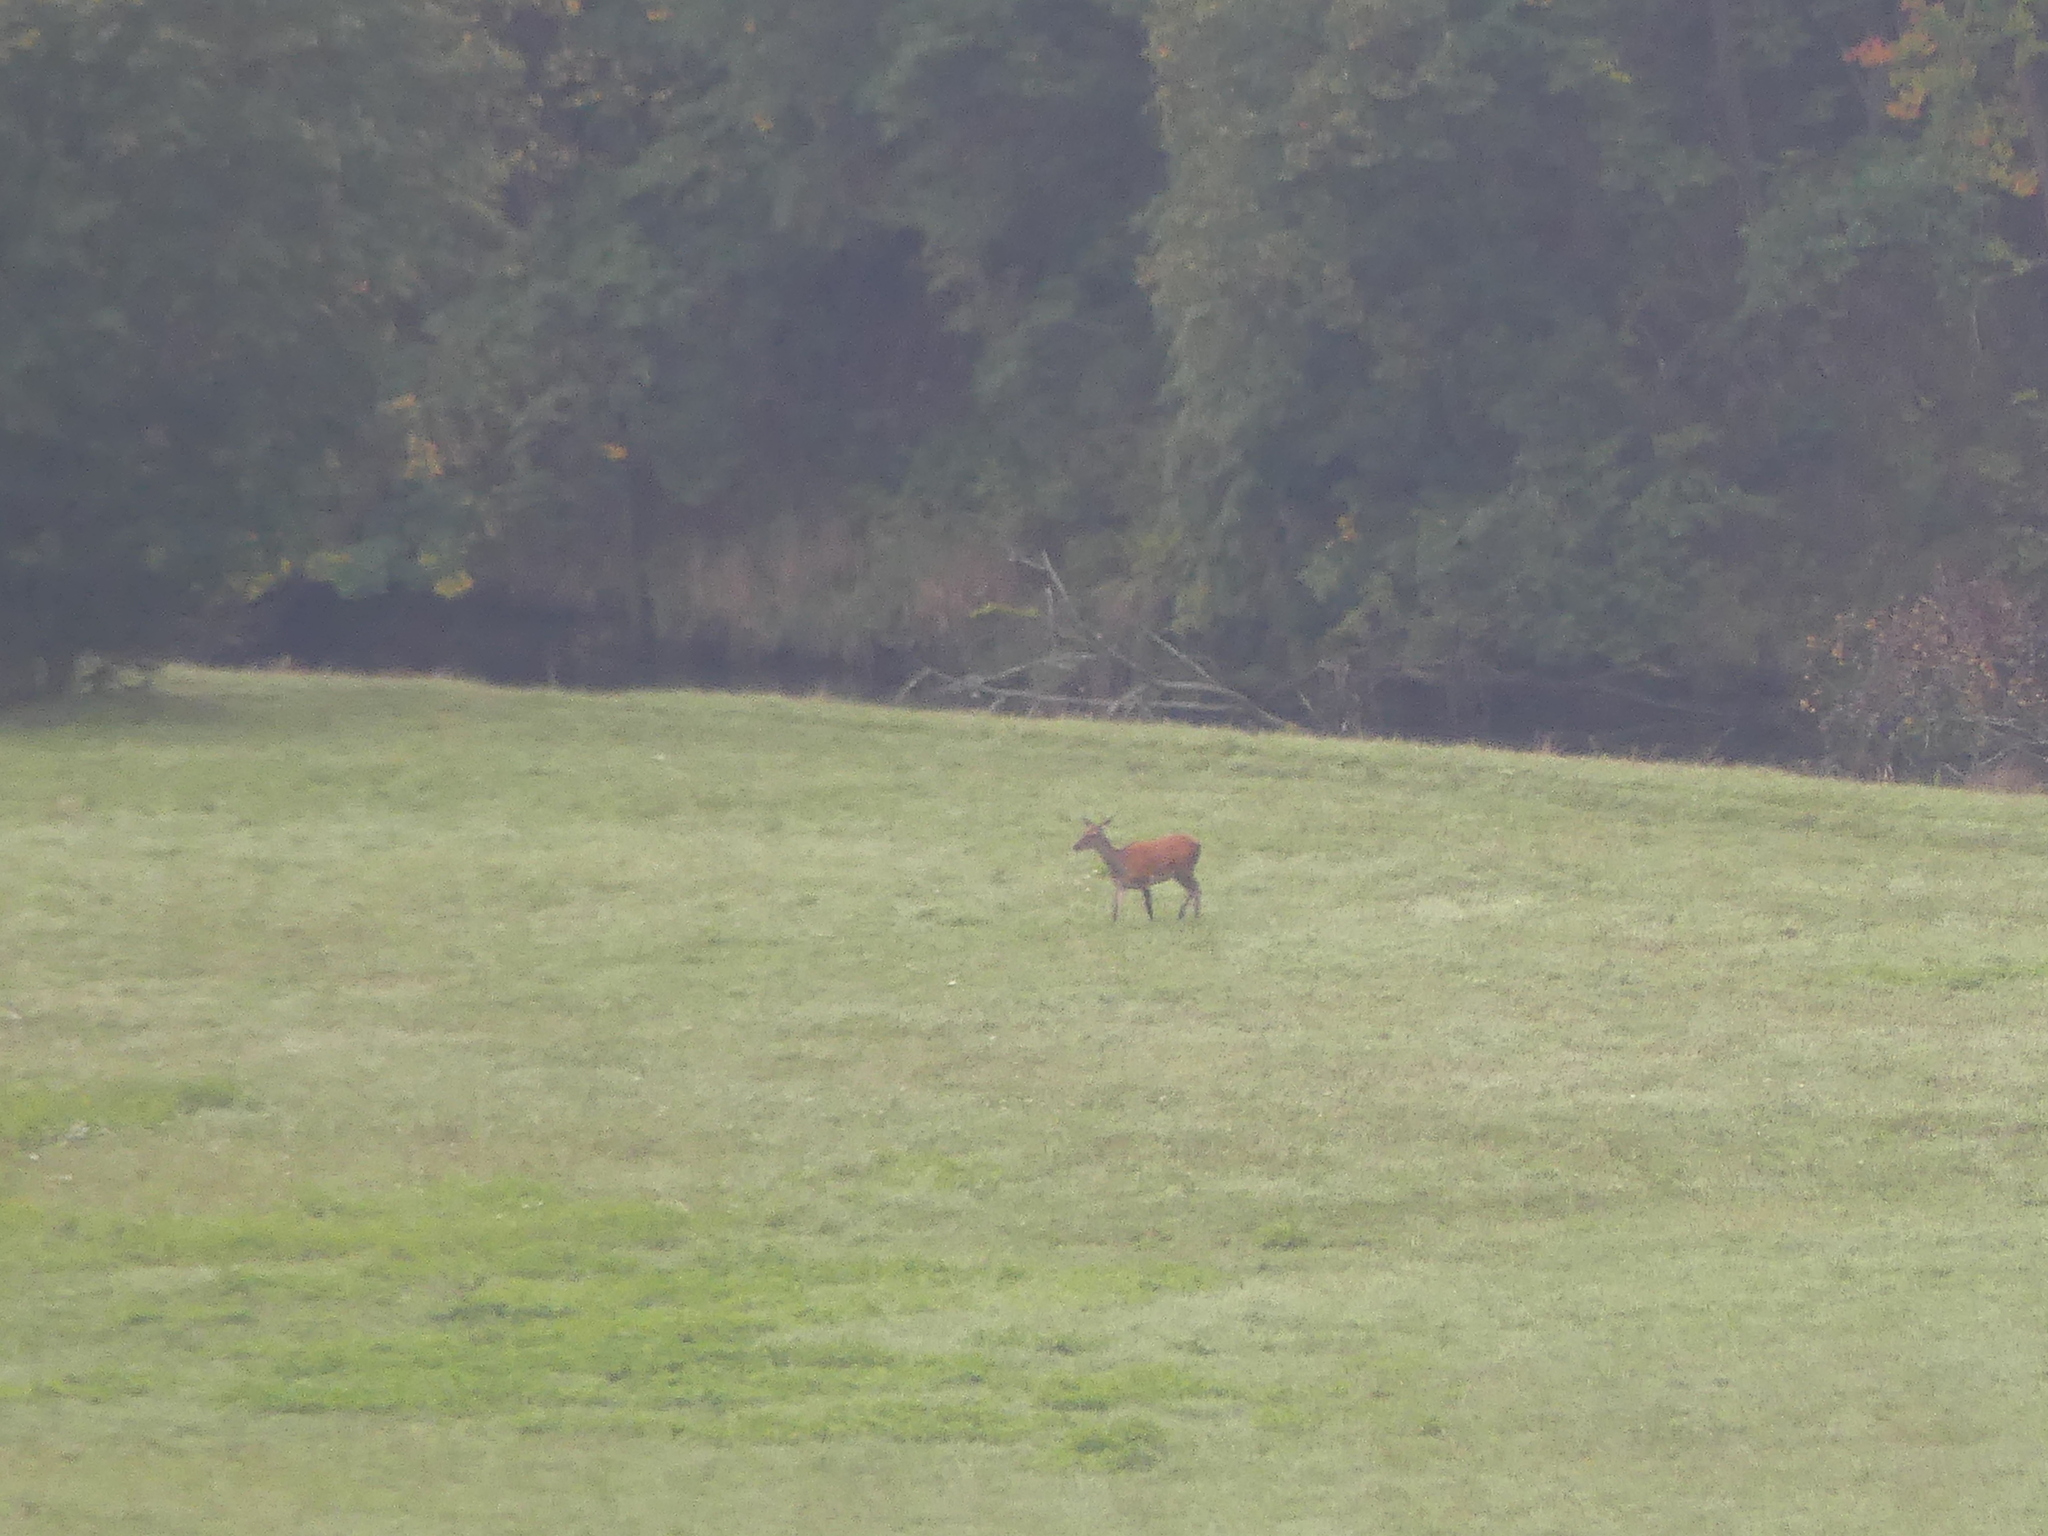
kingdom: Animalia
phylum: Chordata
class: Mammalia
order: Artiodactyla
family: Cervidae
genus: Cervus
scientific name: Cervus elaphus
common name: Red deer
